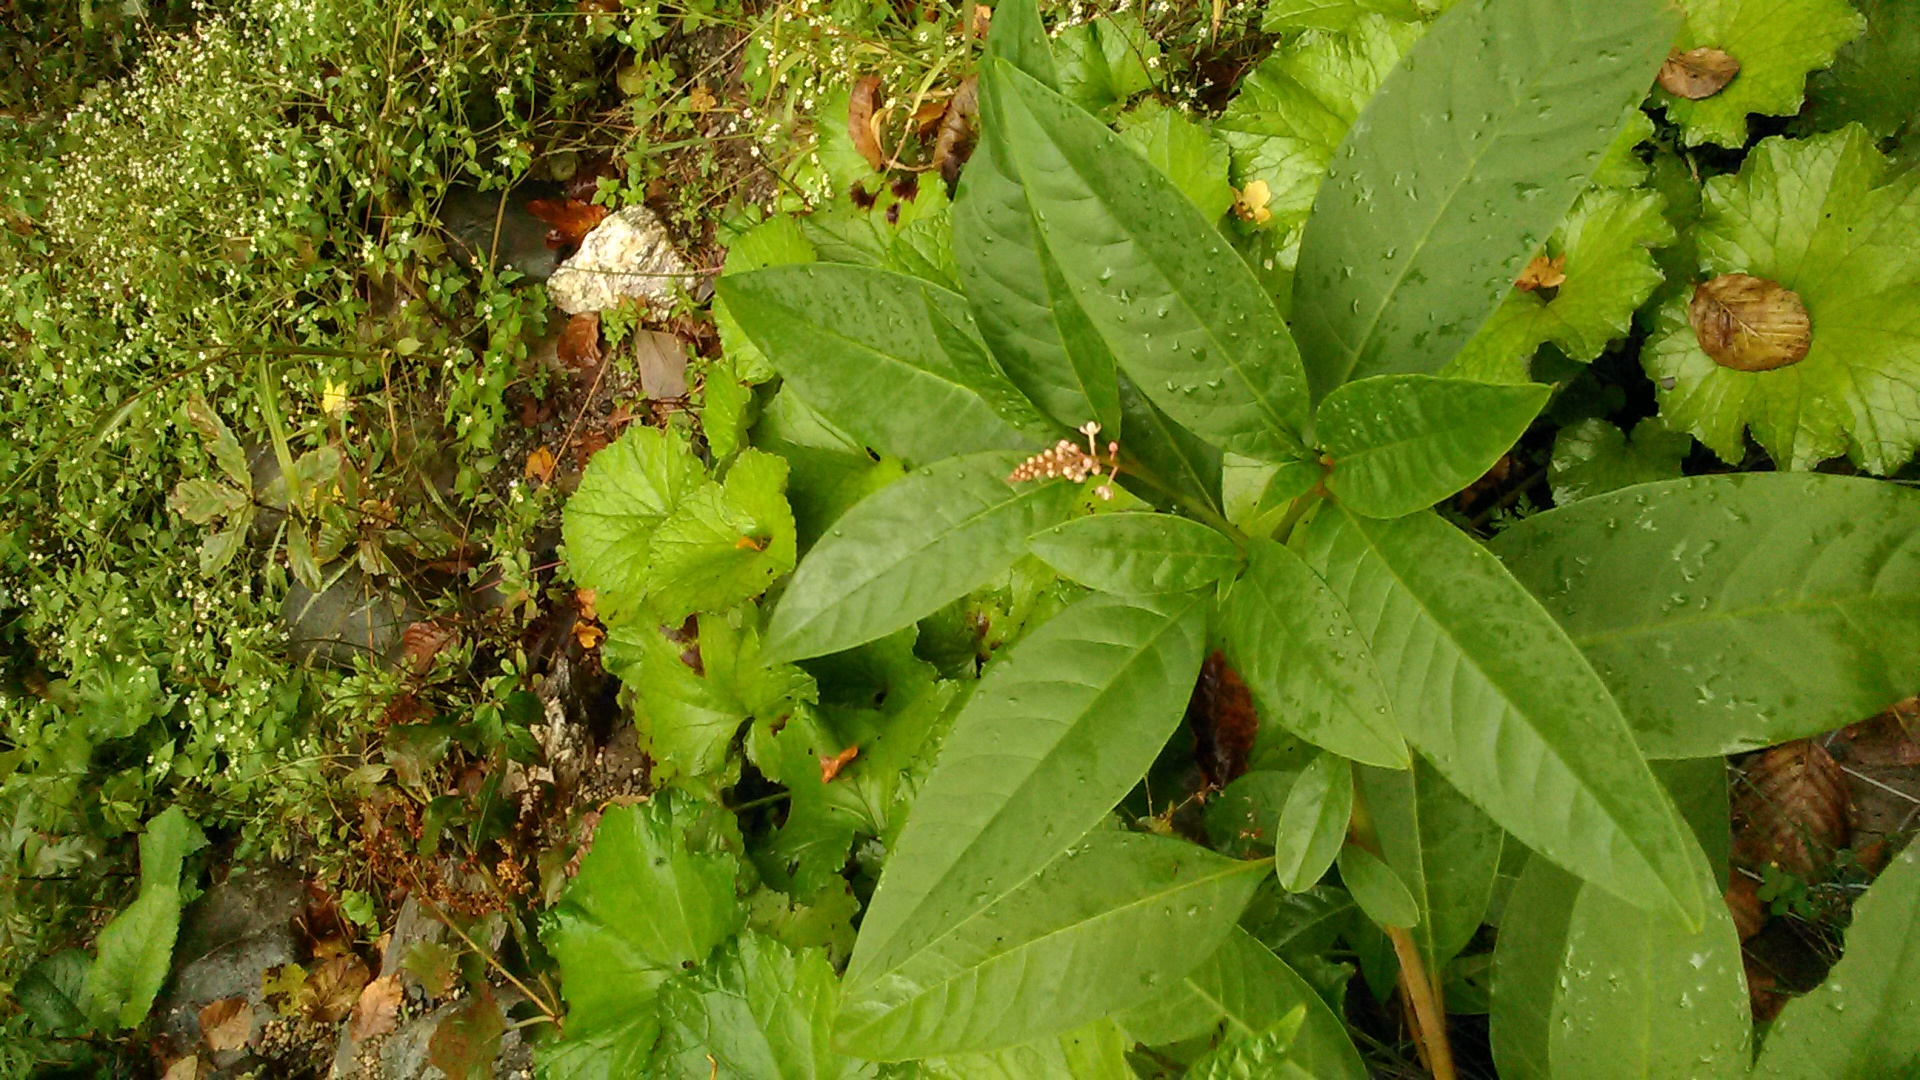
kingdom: Plantae
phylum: Tracheophyta
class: Magnoliopsida
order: Caryophyllales
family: Phytolaccaceae
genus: Phytolacca
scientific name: Phytolacca americana
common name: American pokeweed
